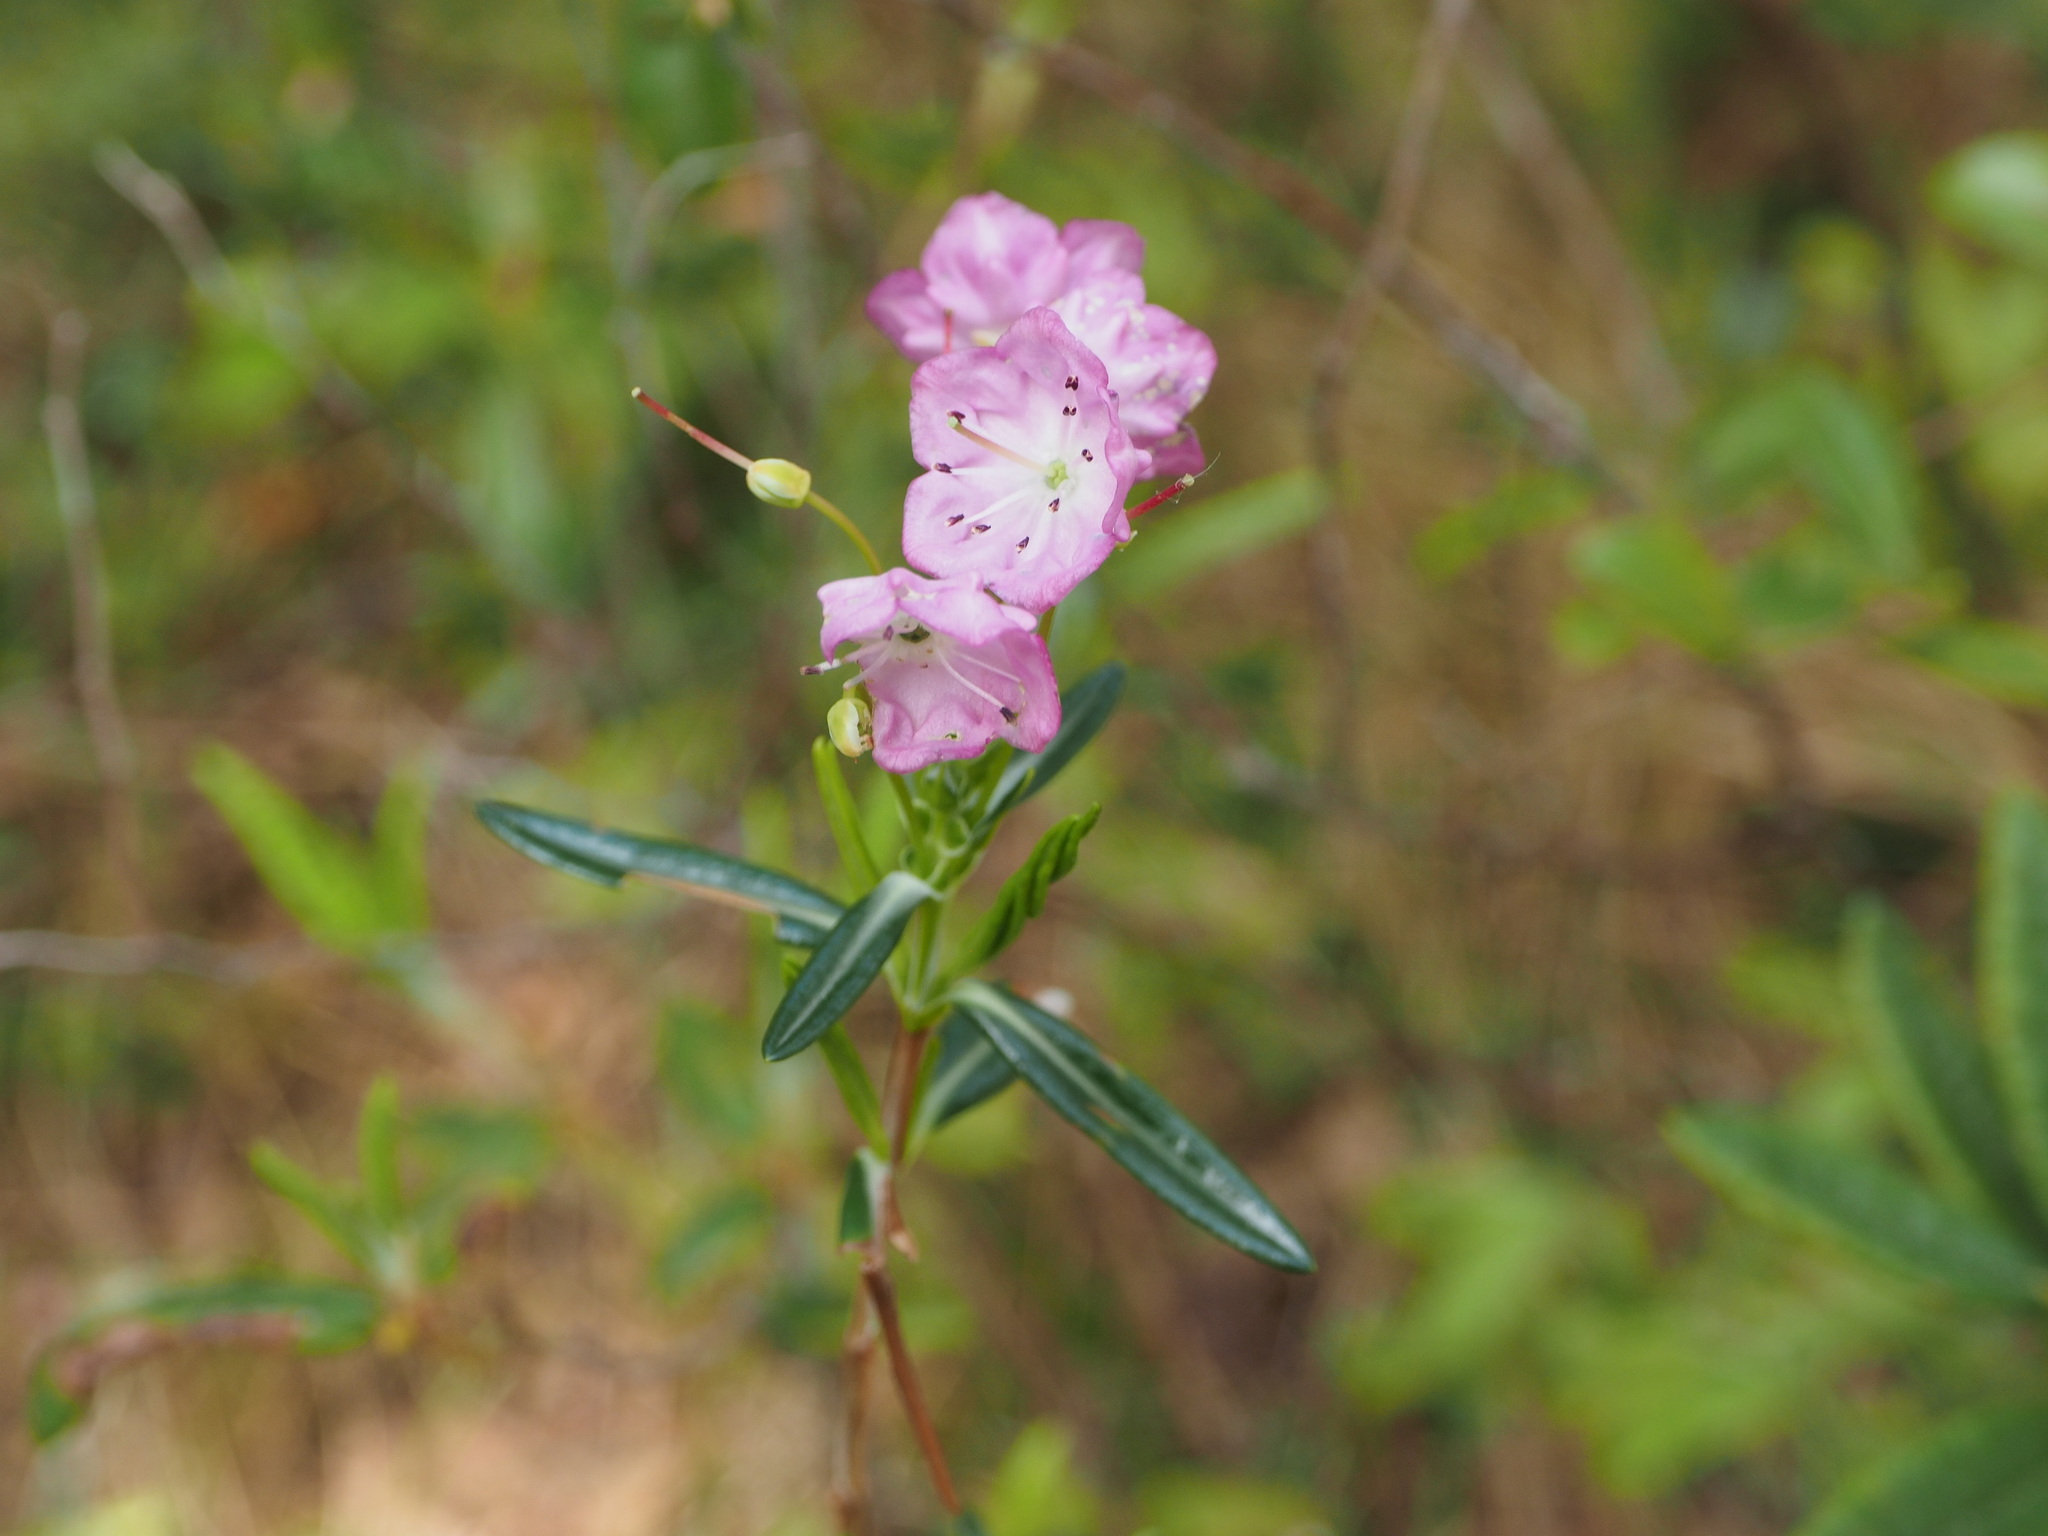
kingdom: Plantae
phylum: Tracheophyta
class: Magnoliopsida
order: Ericales
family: Ericaceae
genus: Kalmia
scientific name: Kalmia polifolia
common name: Bog-laurel
